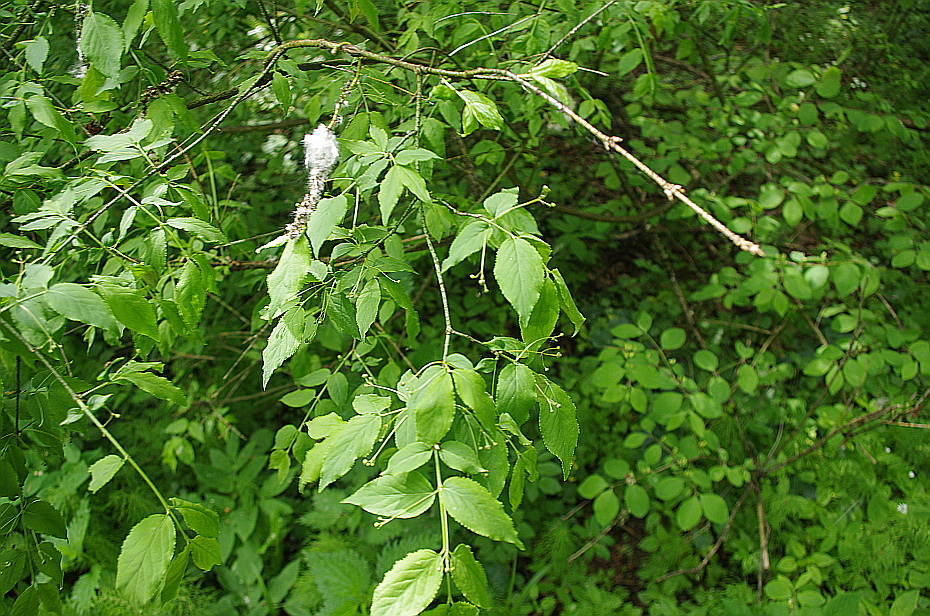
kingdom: Plantae
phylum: Tracheophyta
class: Magnoliopsida
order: Celastrales
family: Celastraceae
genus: Euonymus
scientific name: Euonymus verrucosus
